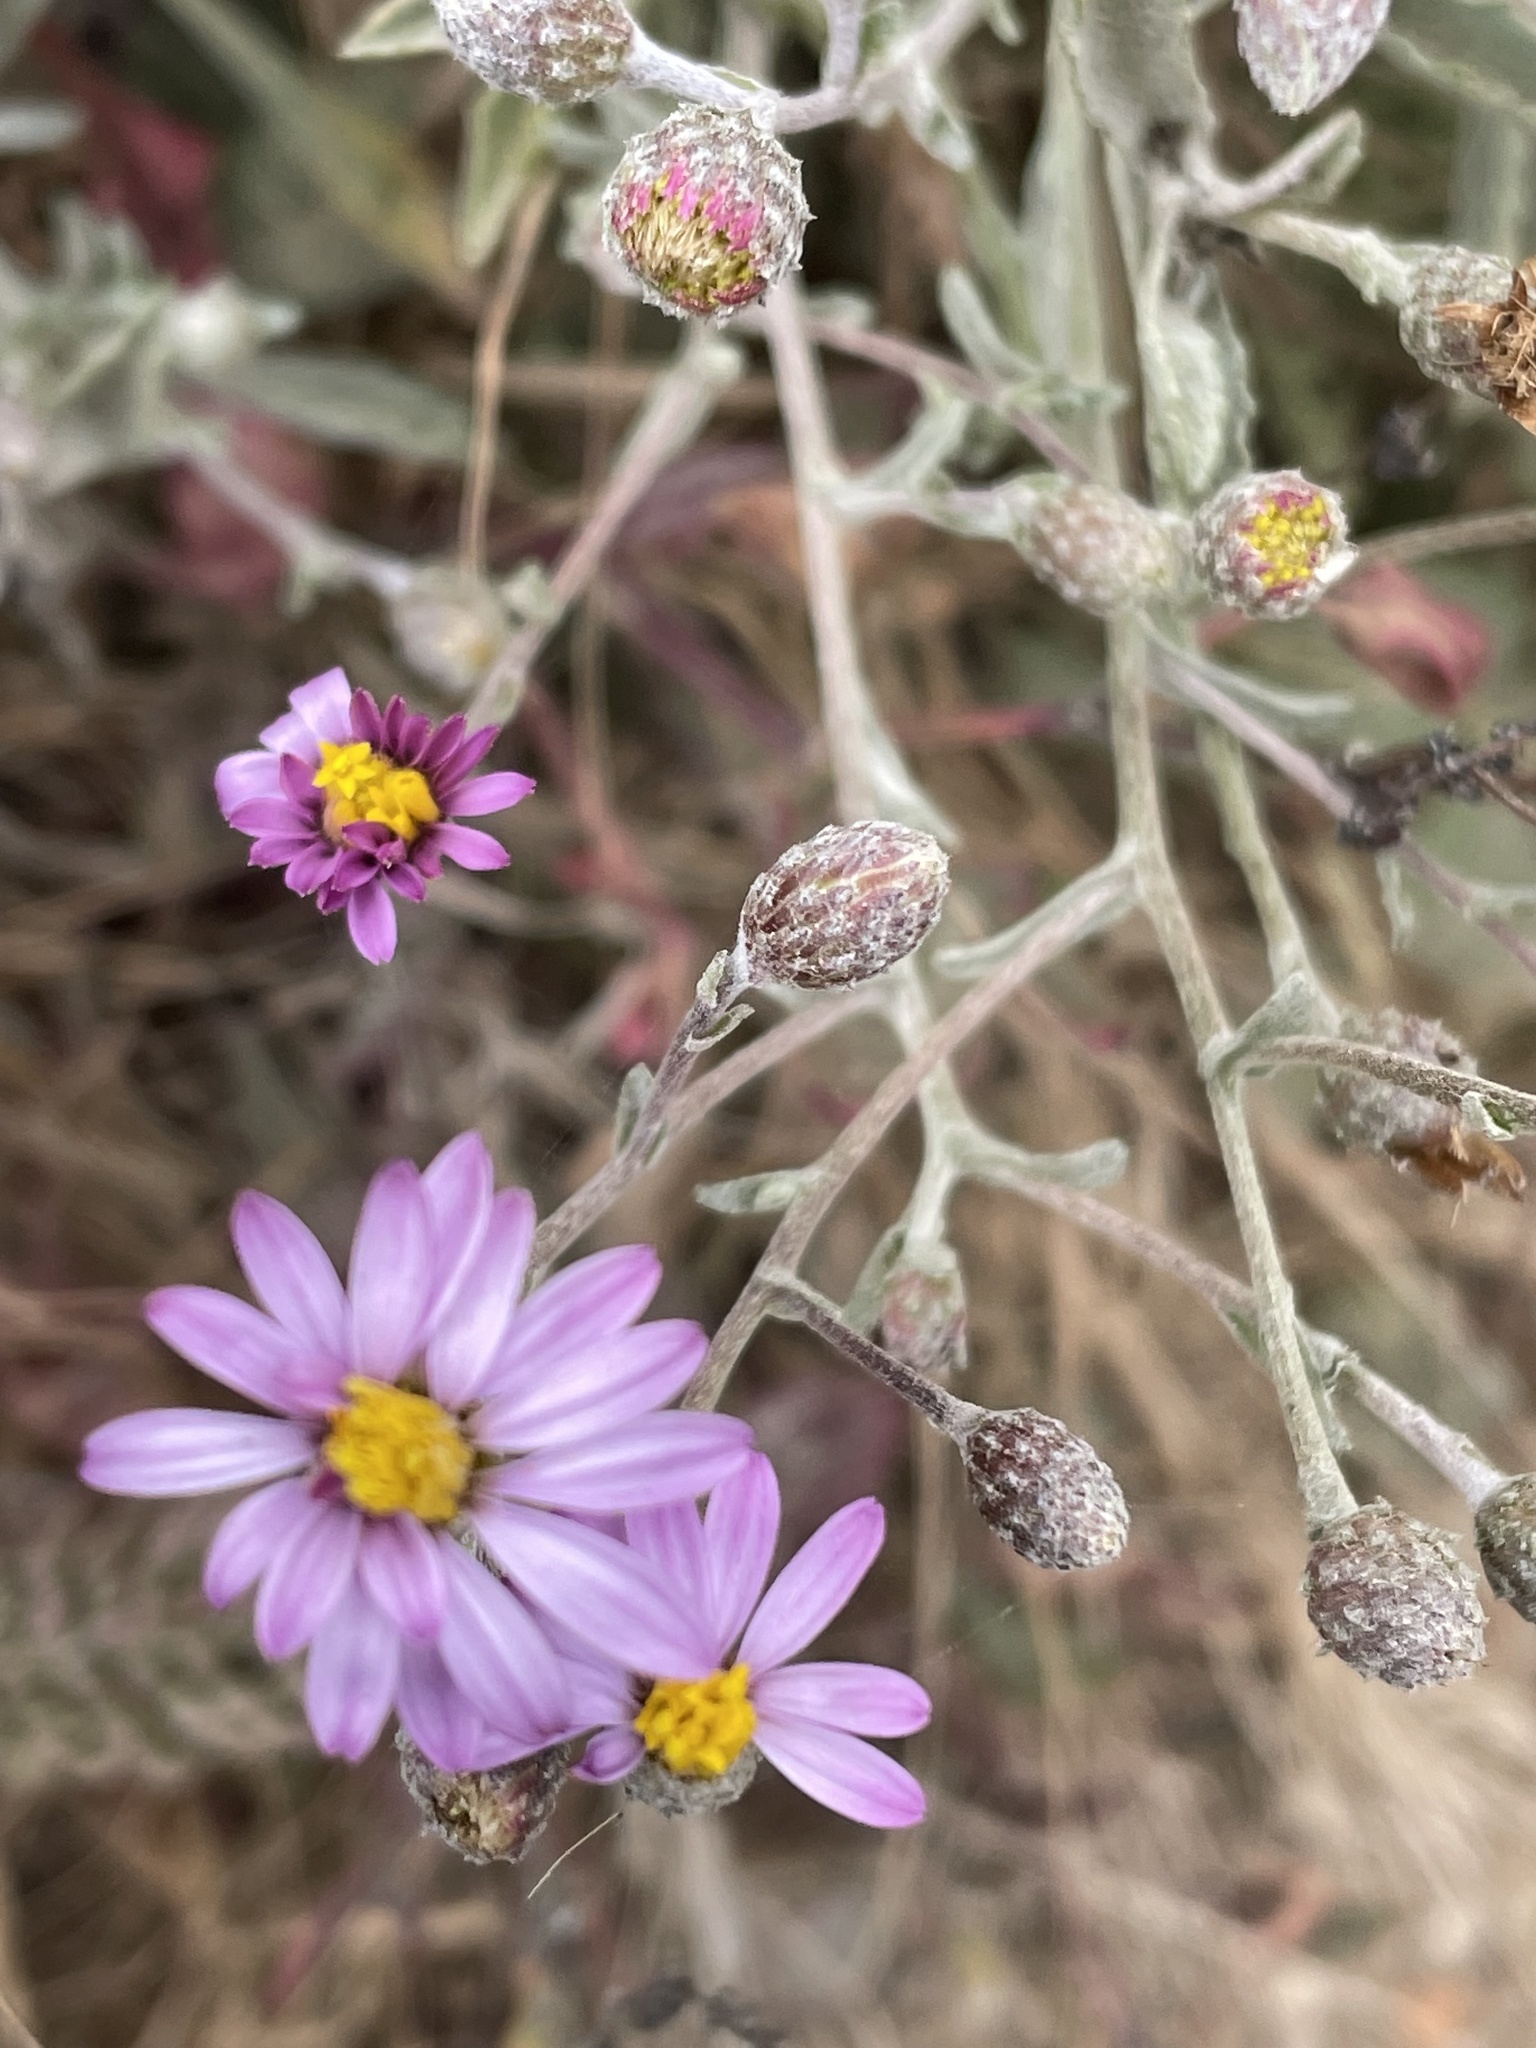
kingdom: Plantae
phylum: Tracheophyta
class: Magnoliopsida
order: Asterales
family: Asteraceae
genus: Corethrogyne
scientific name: Corethrogyne filaginifolia
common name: Sand-aster
